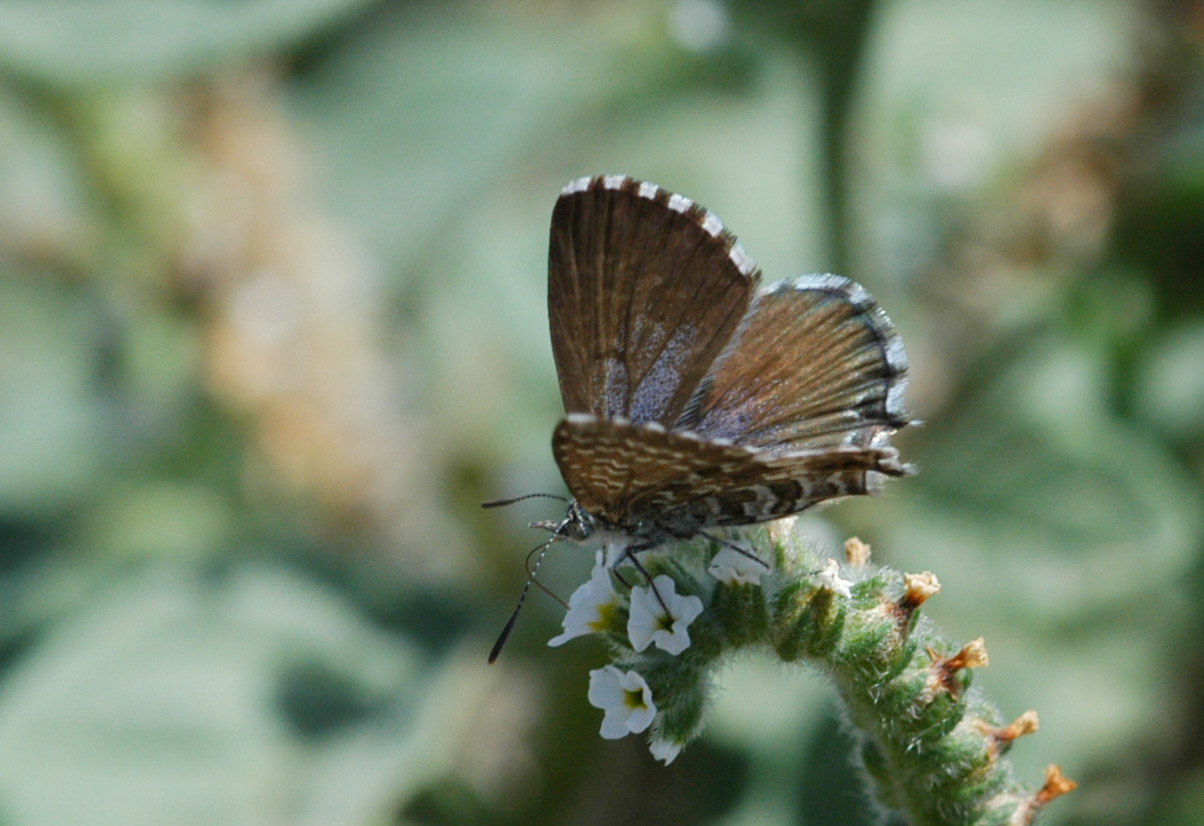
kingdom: Animalia
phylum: Arthropoda
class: Insecta
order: Lepidoptera
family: Lycaenidae
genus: Theclinesthes
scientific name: Theclinesthes serpentata
